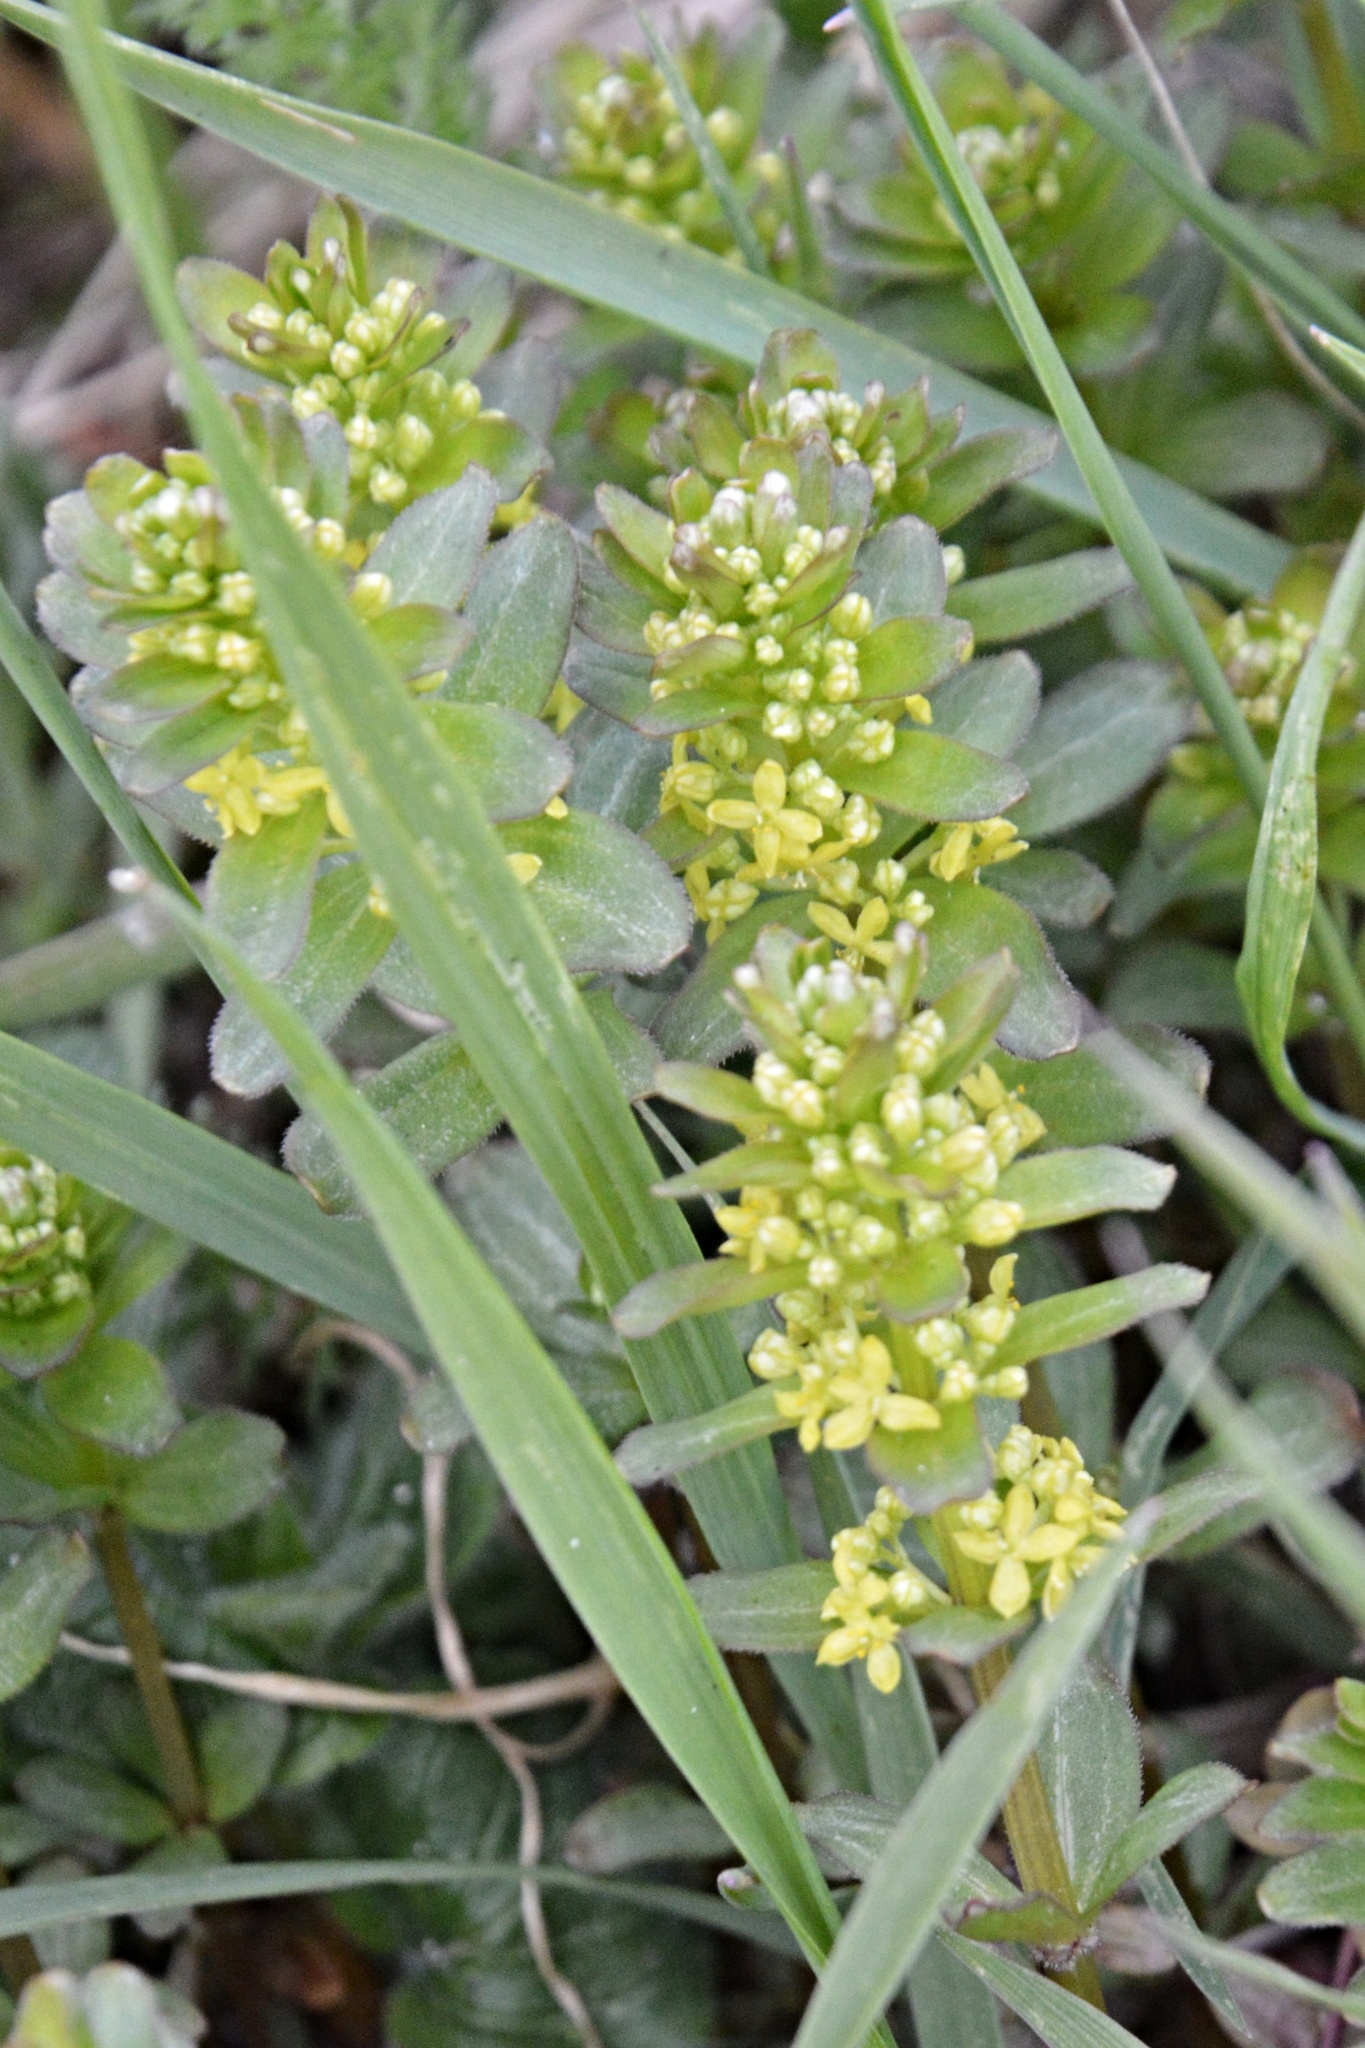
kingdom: Plantae
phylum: Tracheophyta
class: Magnoliopsida
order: Gentianales
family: Rubiaceae
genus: Cruciata
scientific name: Cruciata glabra
